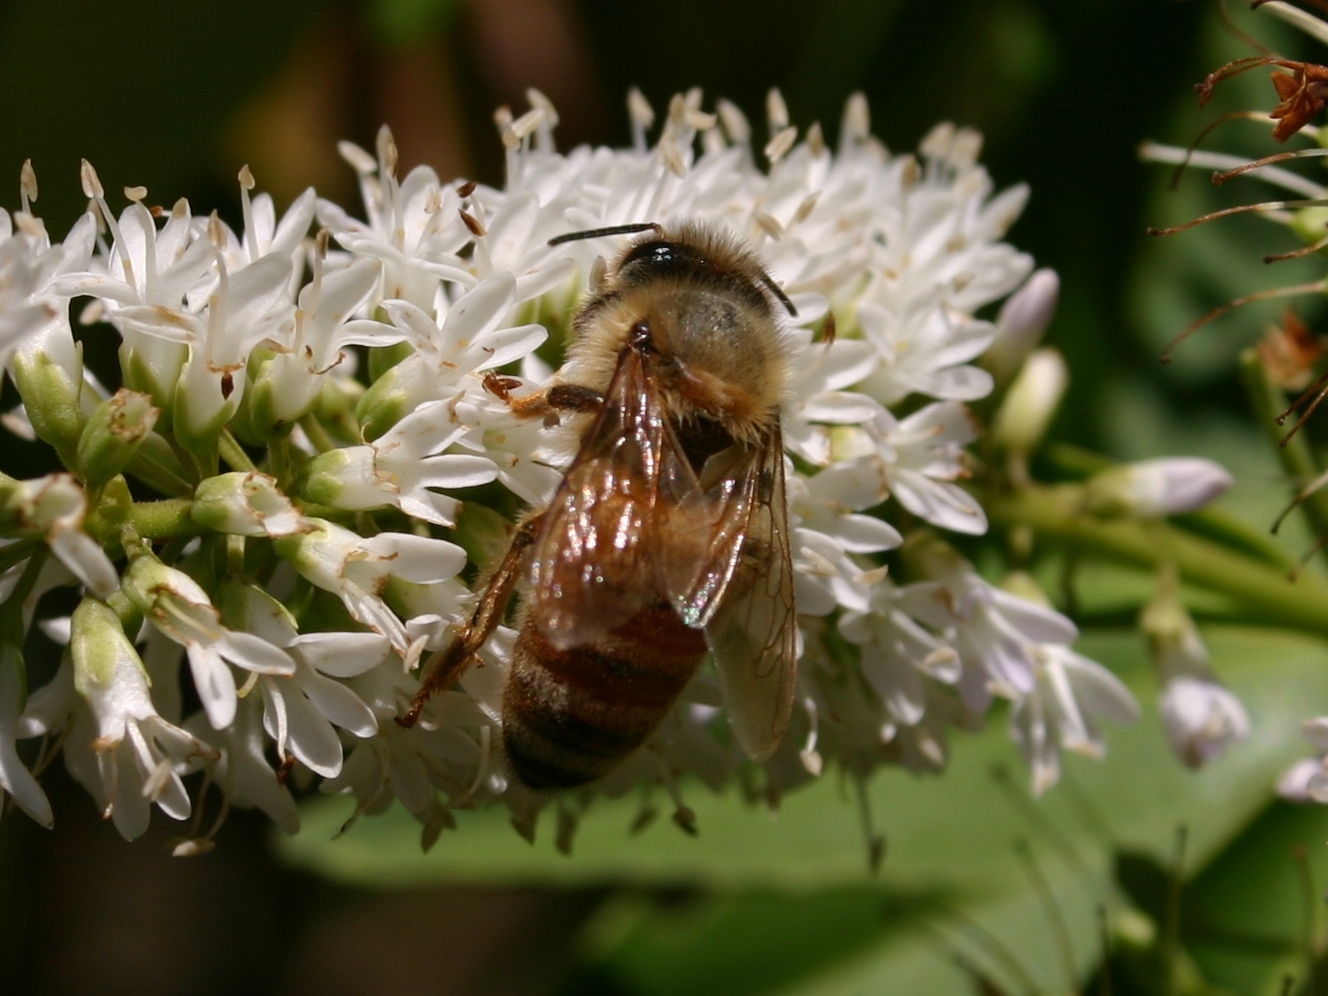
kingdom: Animalia
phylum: Arthropoda
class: Insecta
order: Hymenoptera
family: Apidae
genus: Apis
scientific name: Apis mellifera
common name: Honey bee
